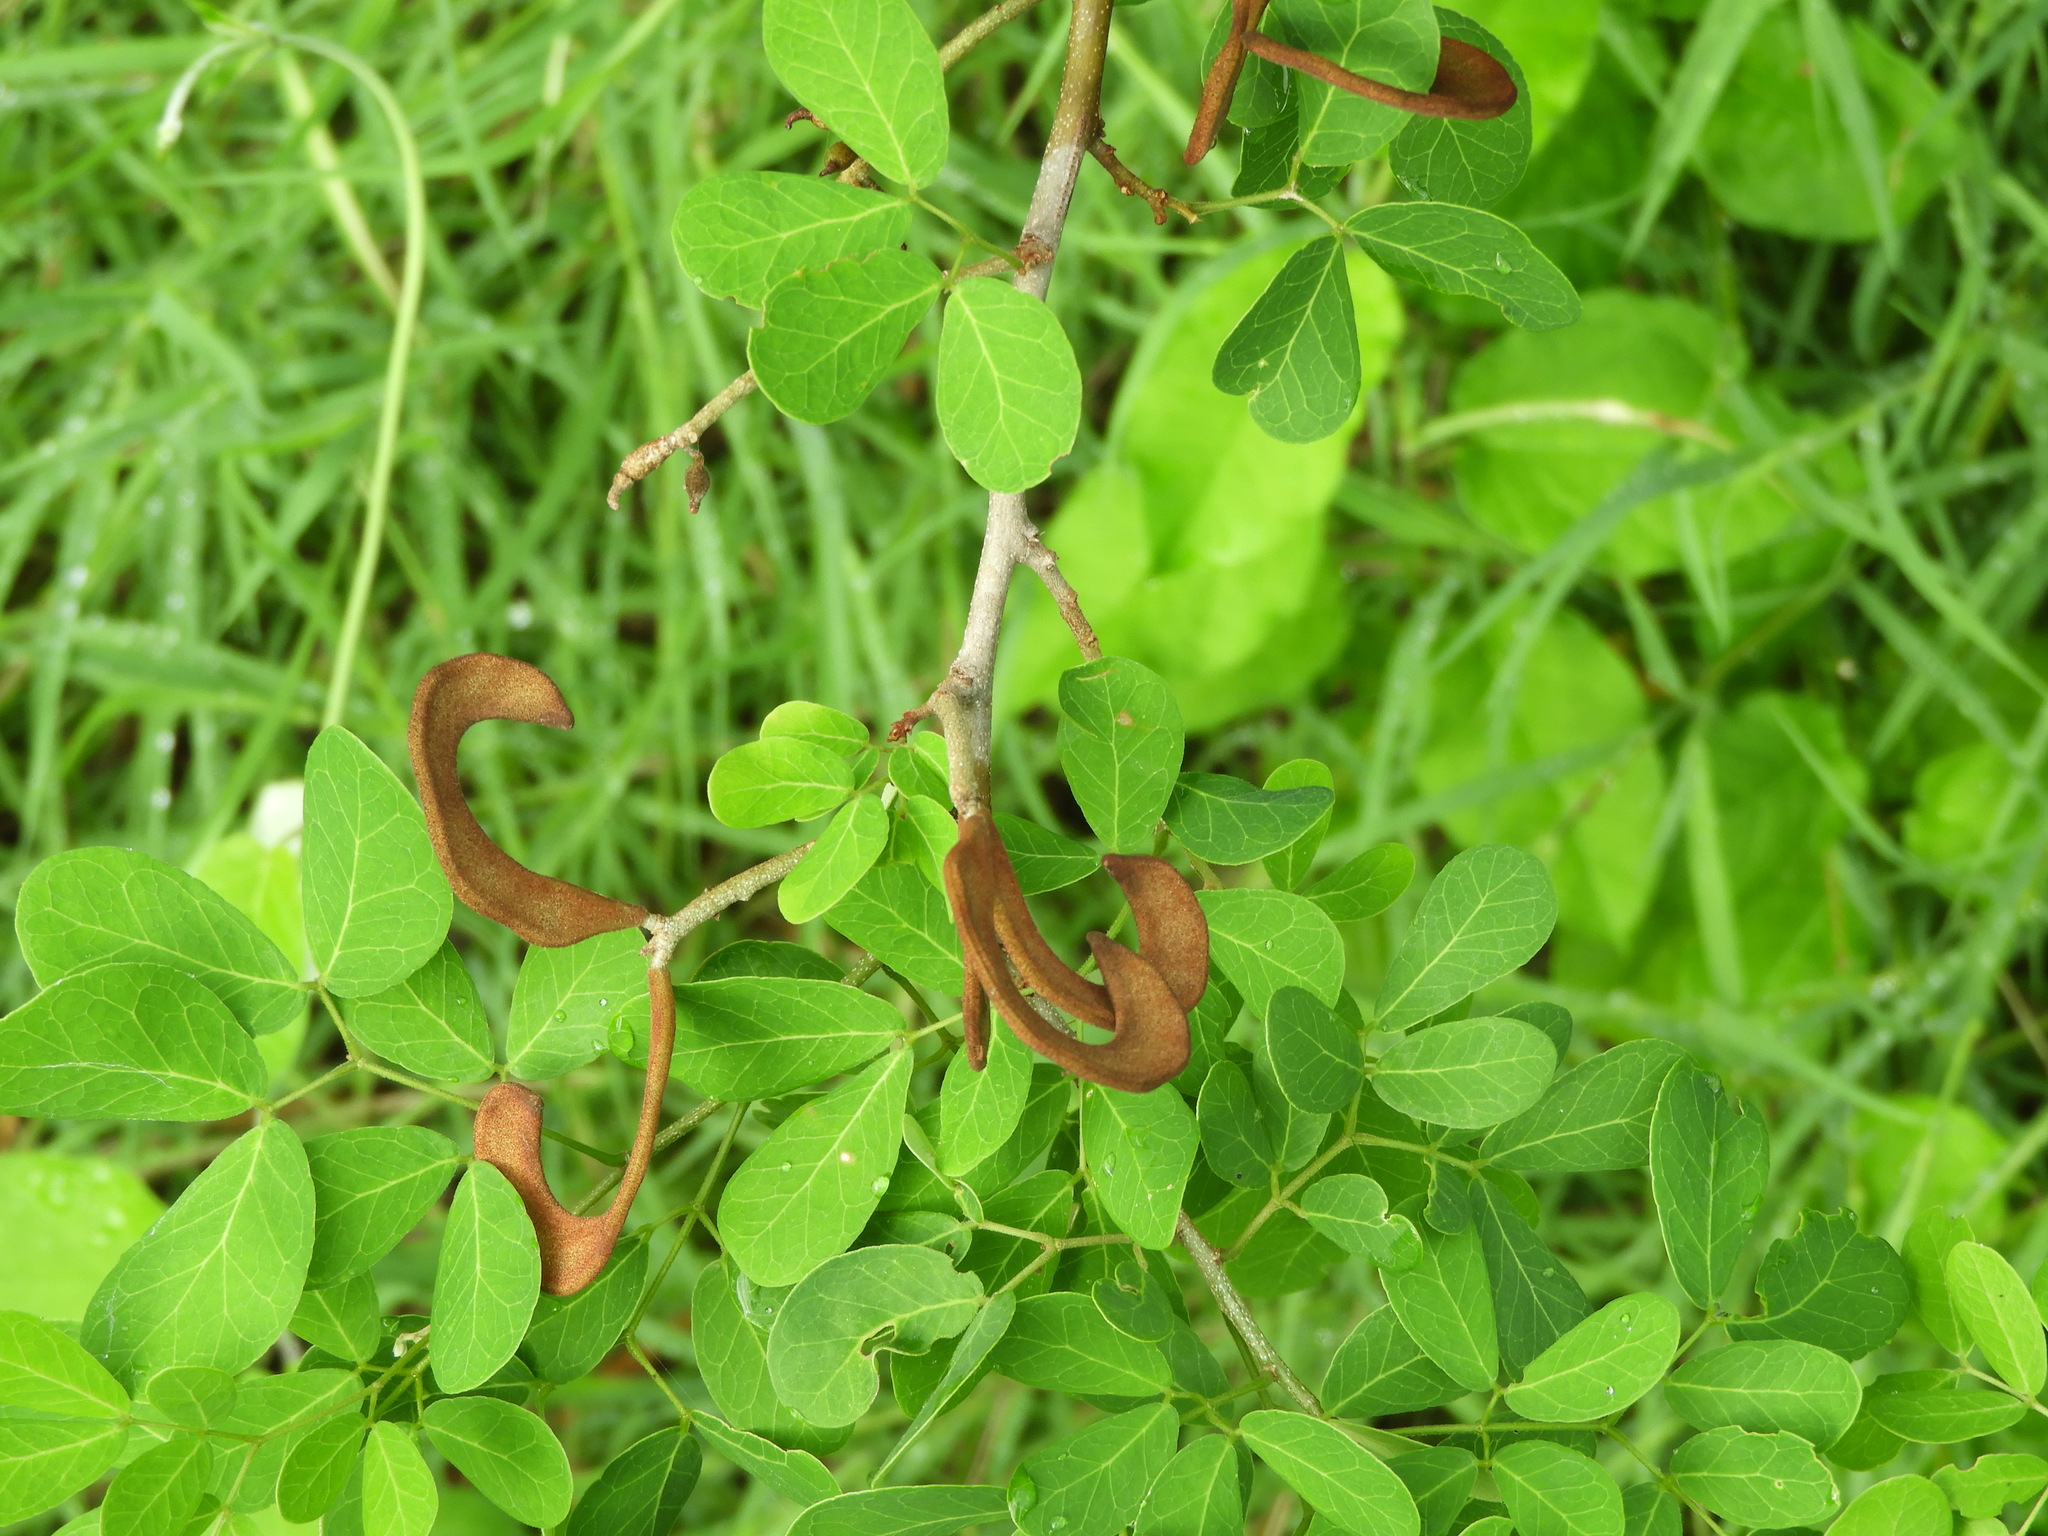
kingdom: Plantae
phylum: Tracheophyta
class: Magnoliopsida
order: Fabales
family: Fabaceae
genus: Microlobius
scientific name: Microlobius foetidus
